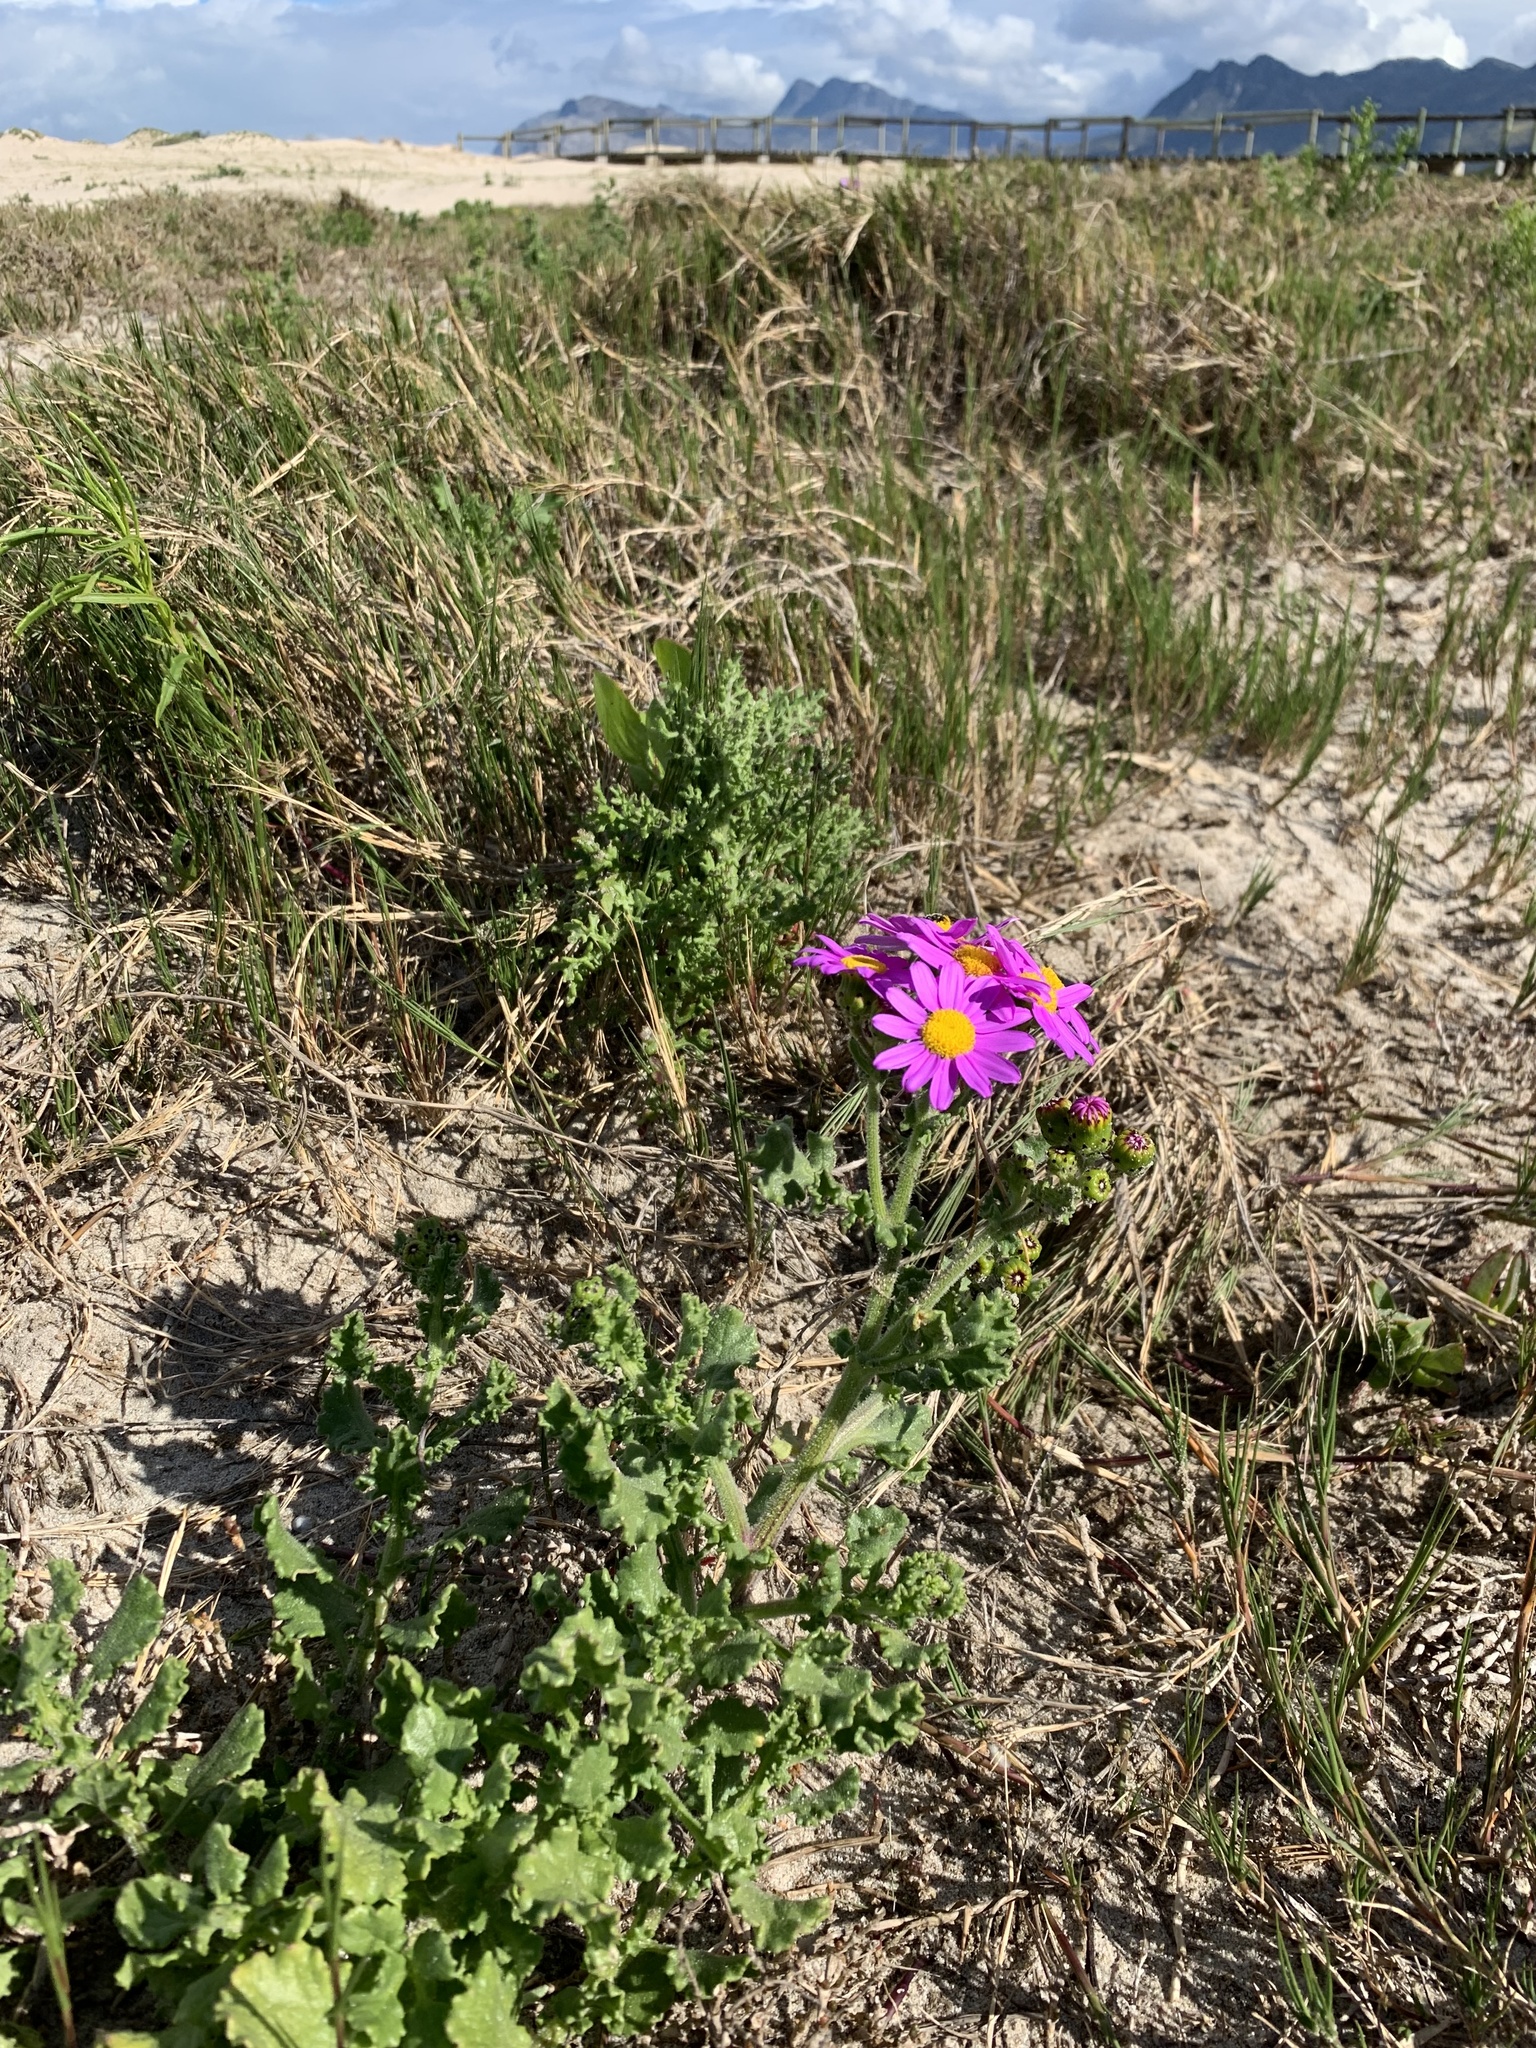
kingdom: Plantae
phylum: Tracheophyta
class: Magnoliopsida
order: Asterales
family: Asteraceae
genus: Senecio
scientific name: Senecio elegans
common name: Purple groundsel
